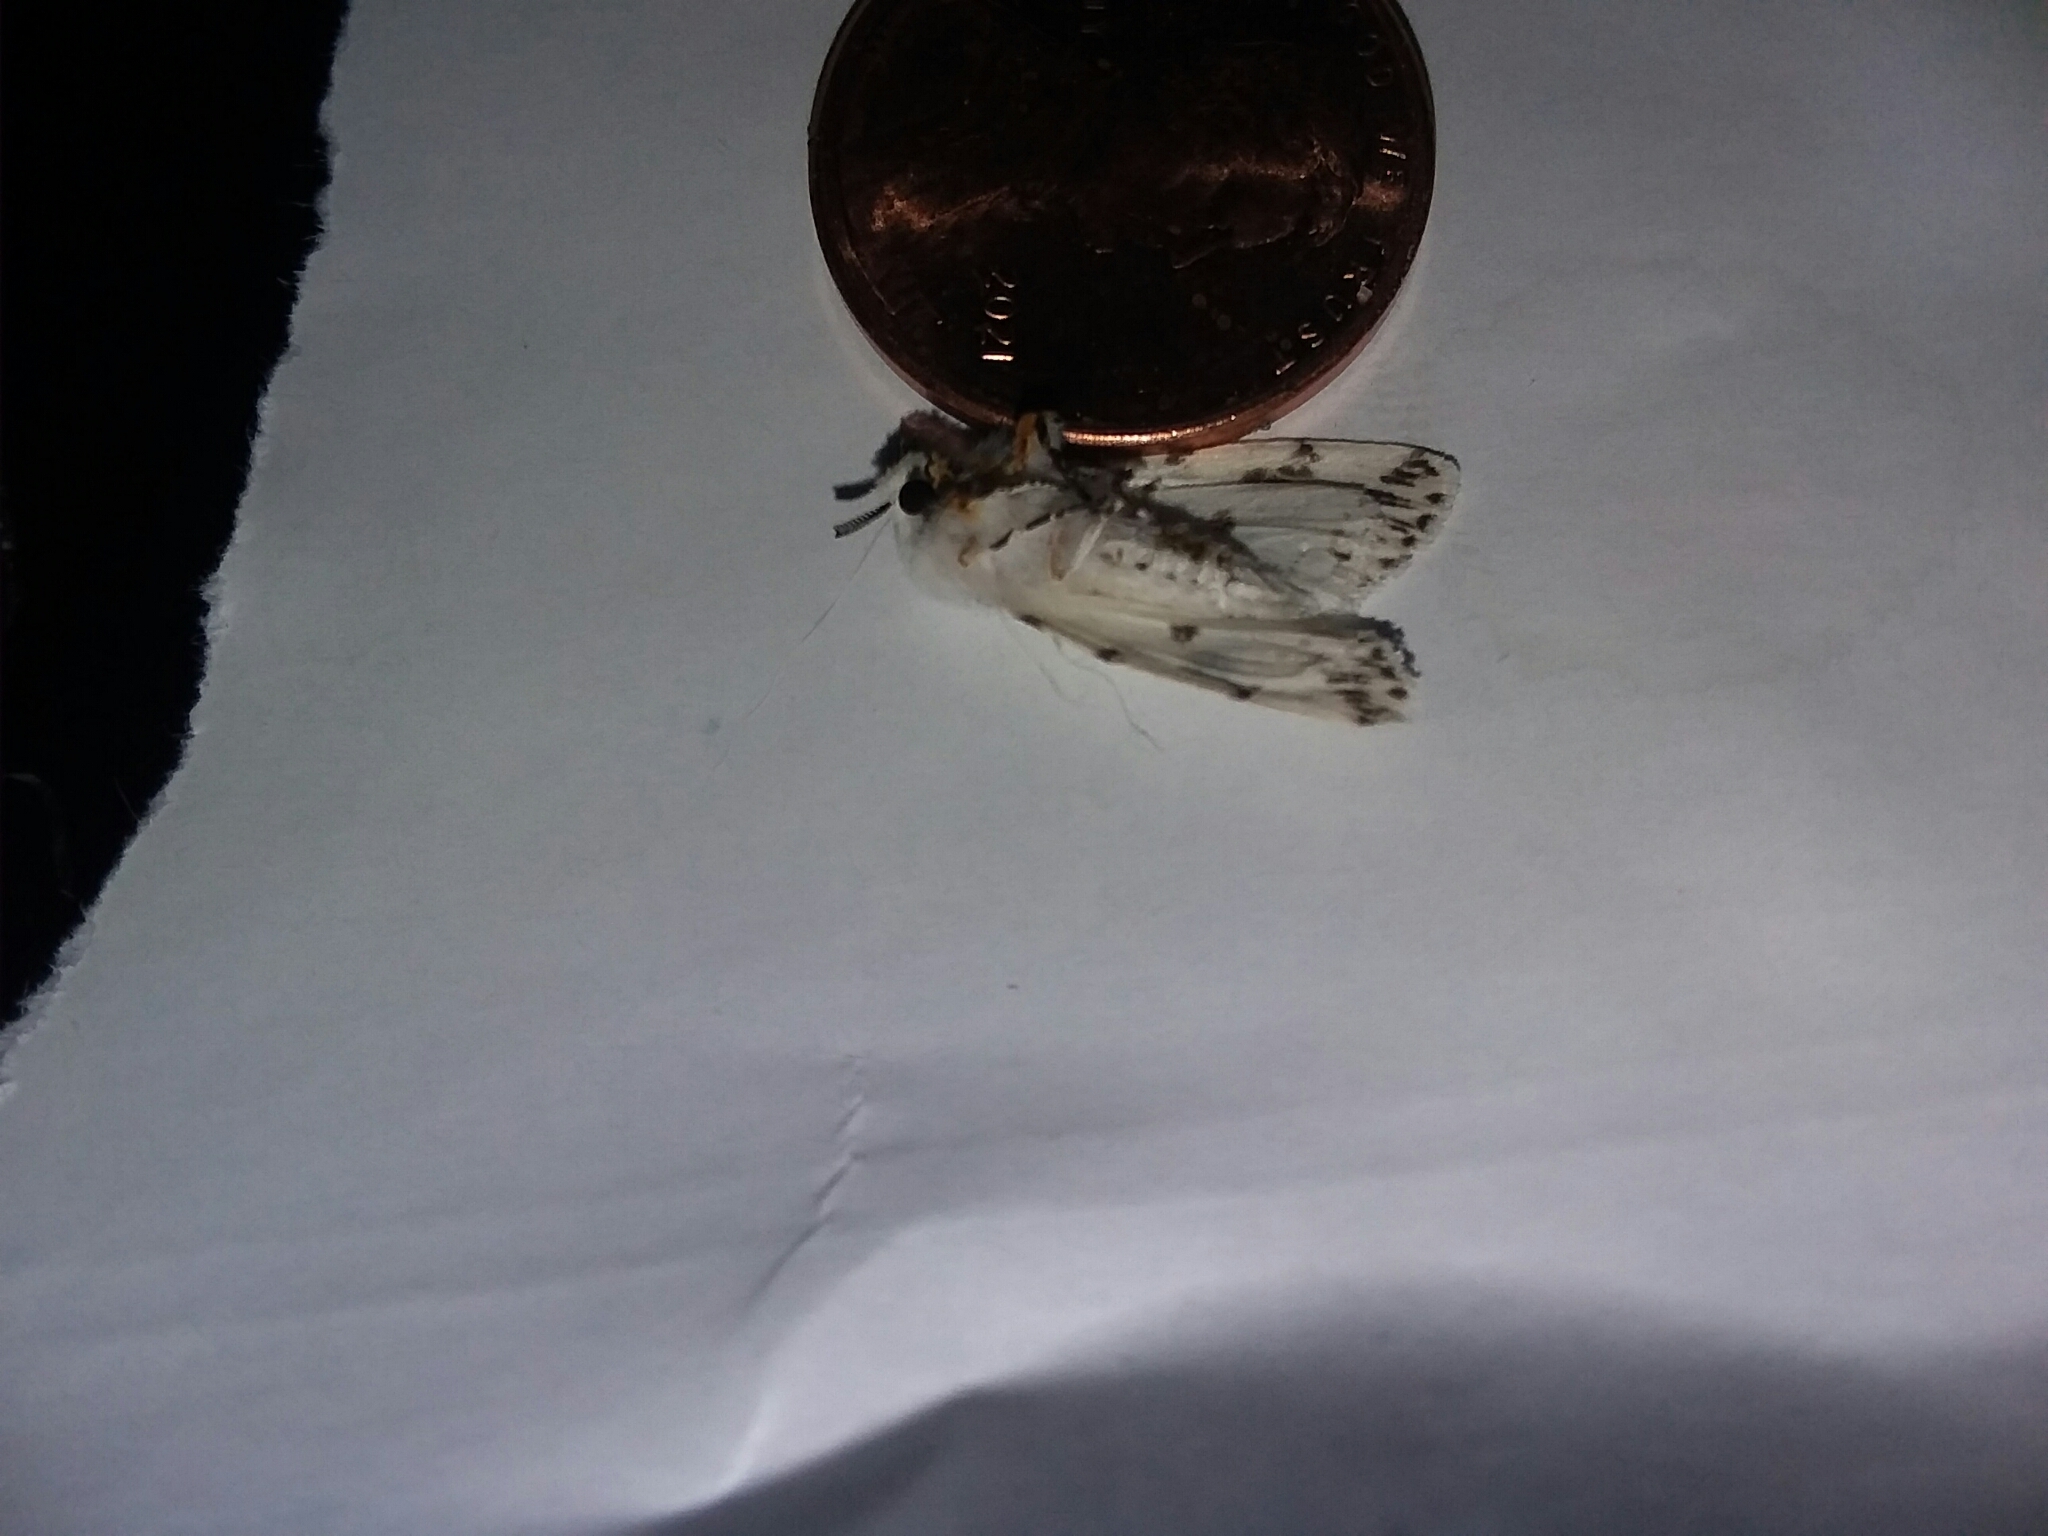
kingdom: Animalia
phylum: Arthropoda
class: Insecta
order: Lepidoptera
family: Erebidae
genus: Hyphantria
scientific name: Hyphantria cunea
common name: American white moth
